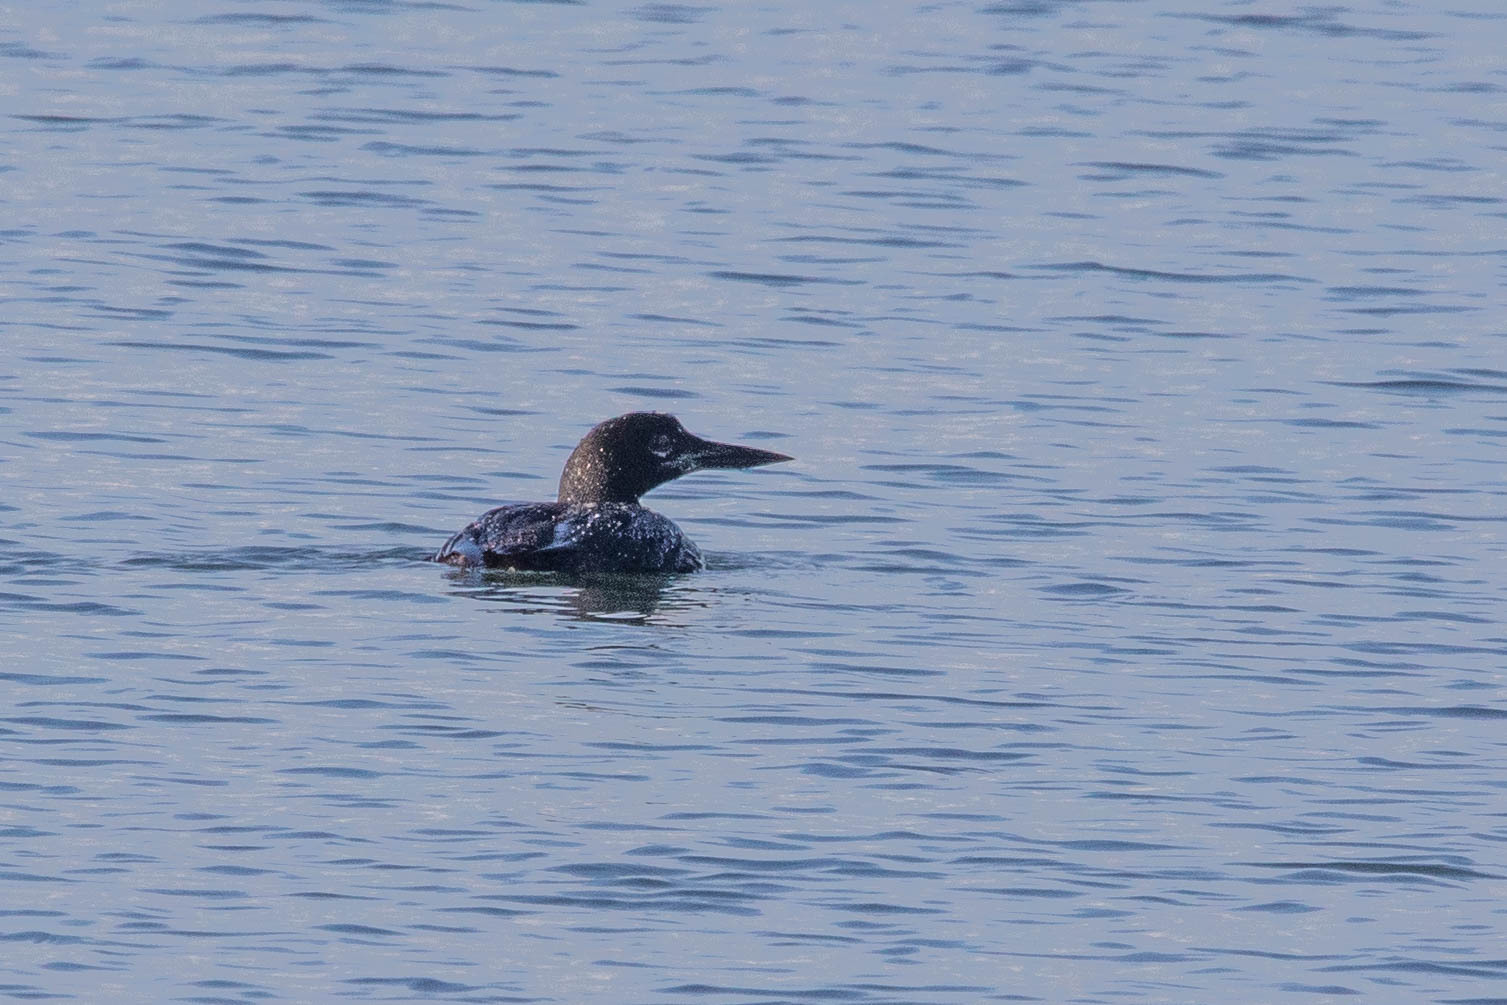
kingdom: Animalia
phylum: Chordata
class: Aves
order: Gaviiformes
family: Gaviidae
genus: Gavia
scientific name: Gavia immer
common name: Common loon
